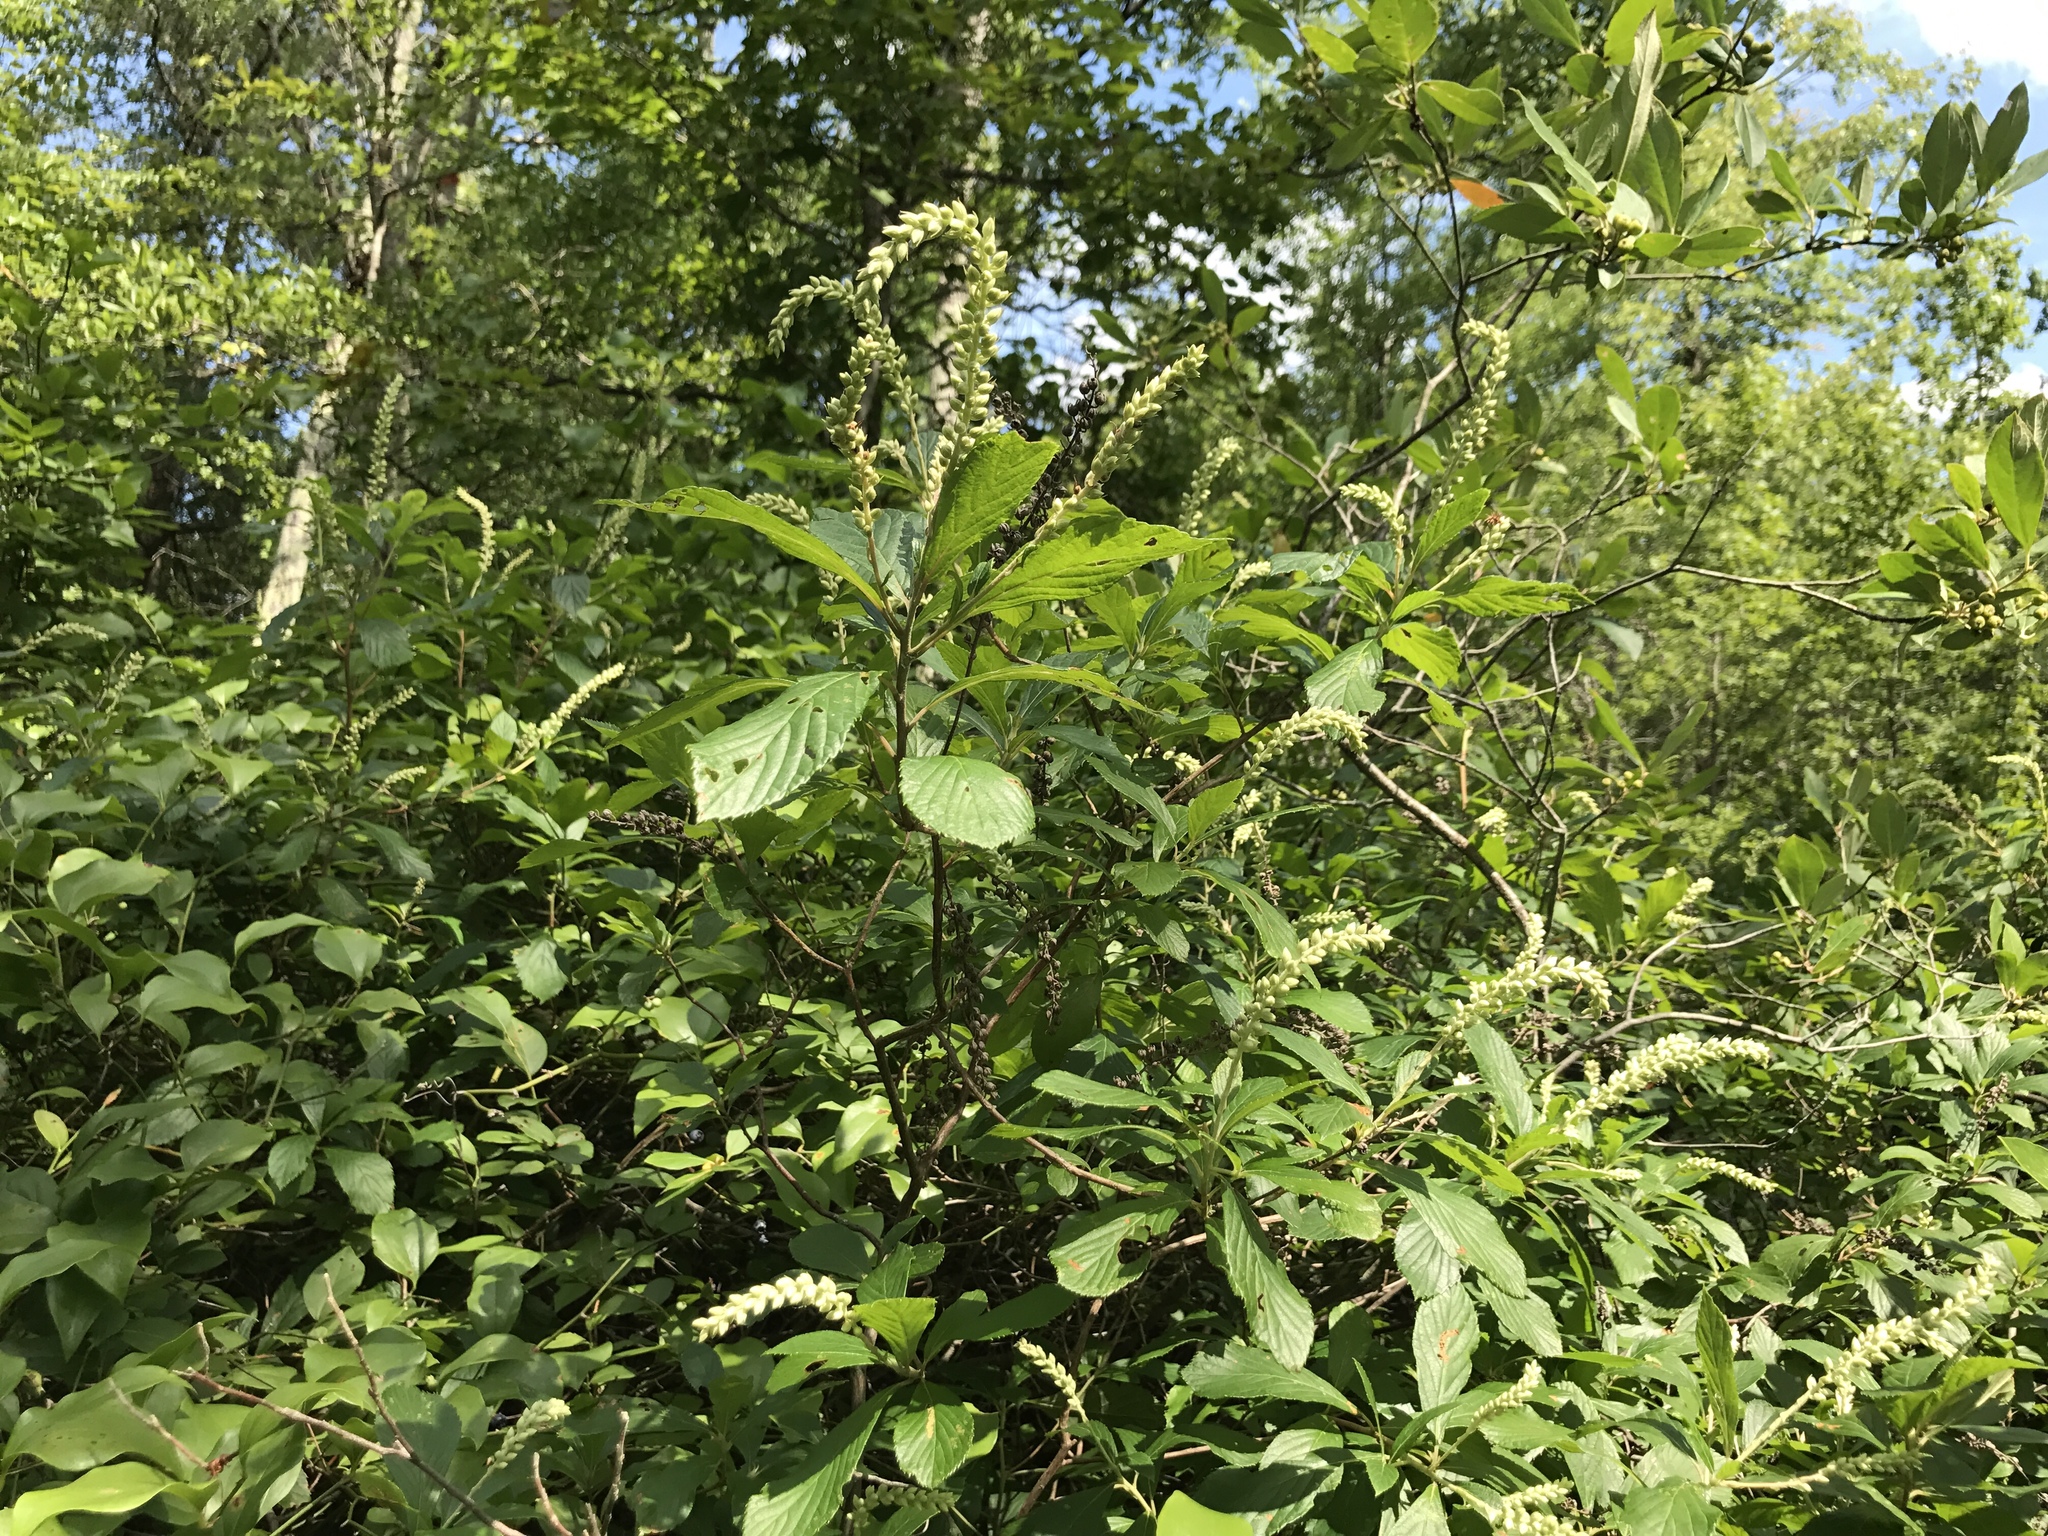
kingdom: Plantae
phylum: Tracheophyta
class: Magnoliopsida
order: Ericales
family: Clethraceae
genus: Clethra
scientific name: Clethra alnifolia
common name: Sweet pepperbush
